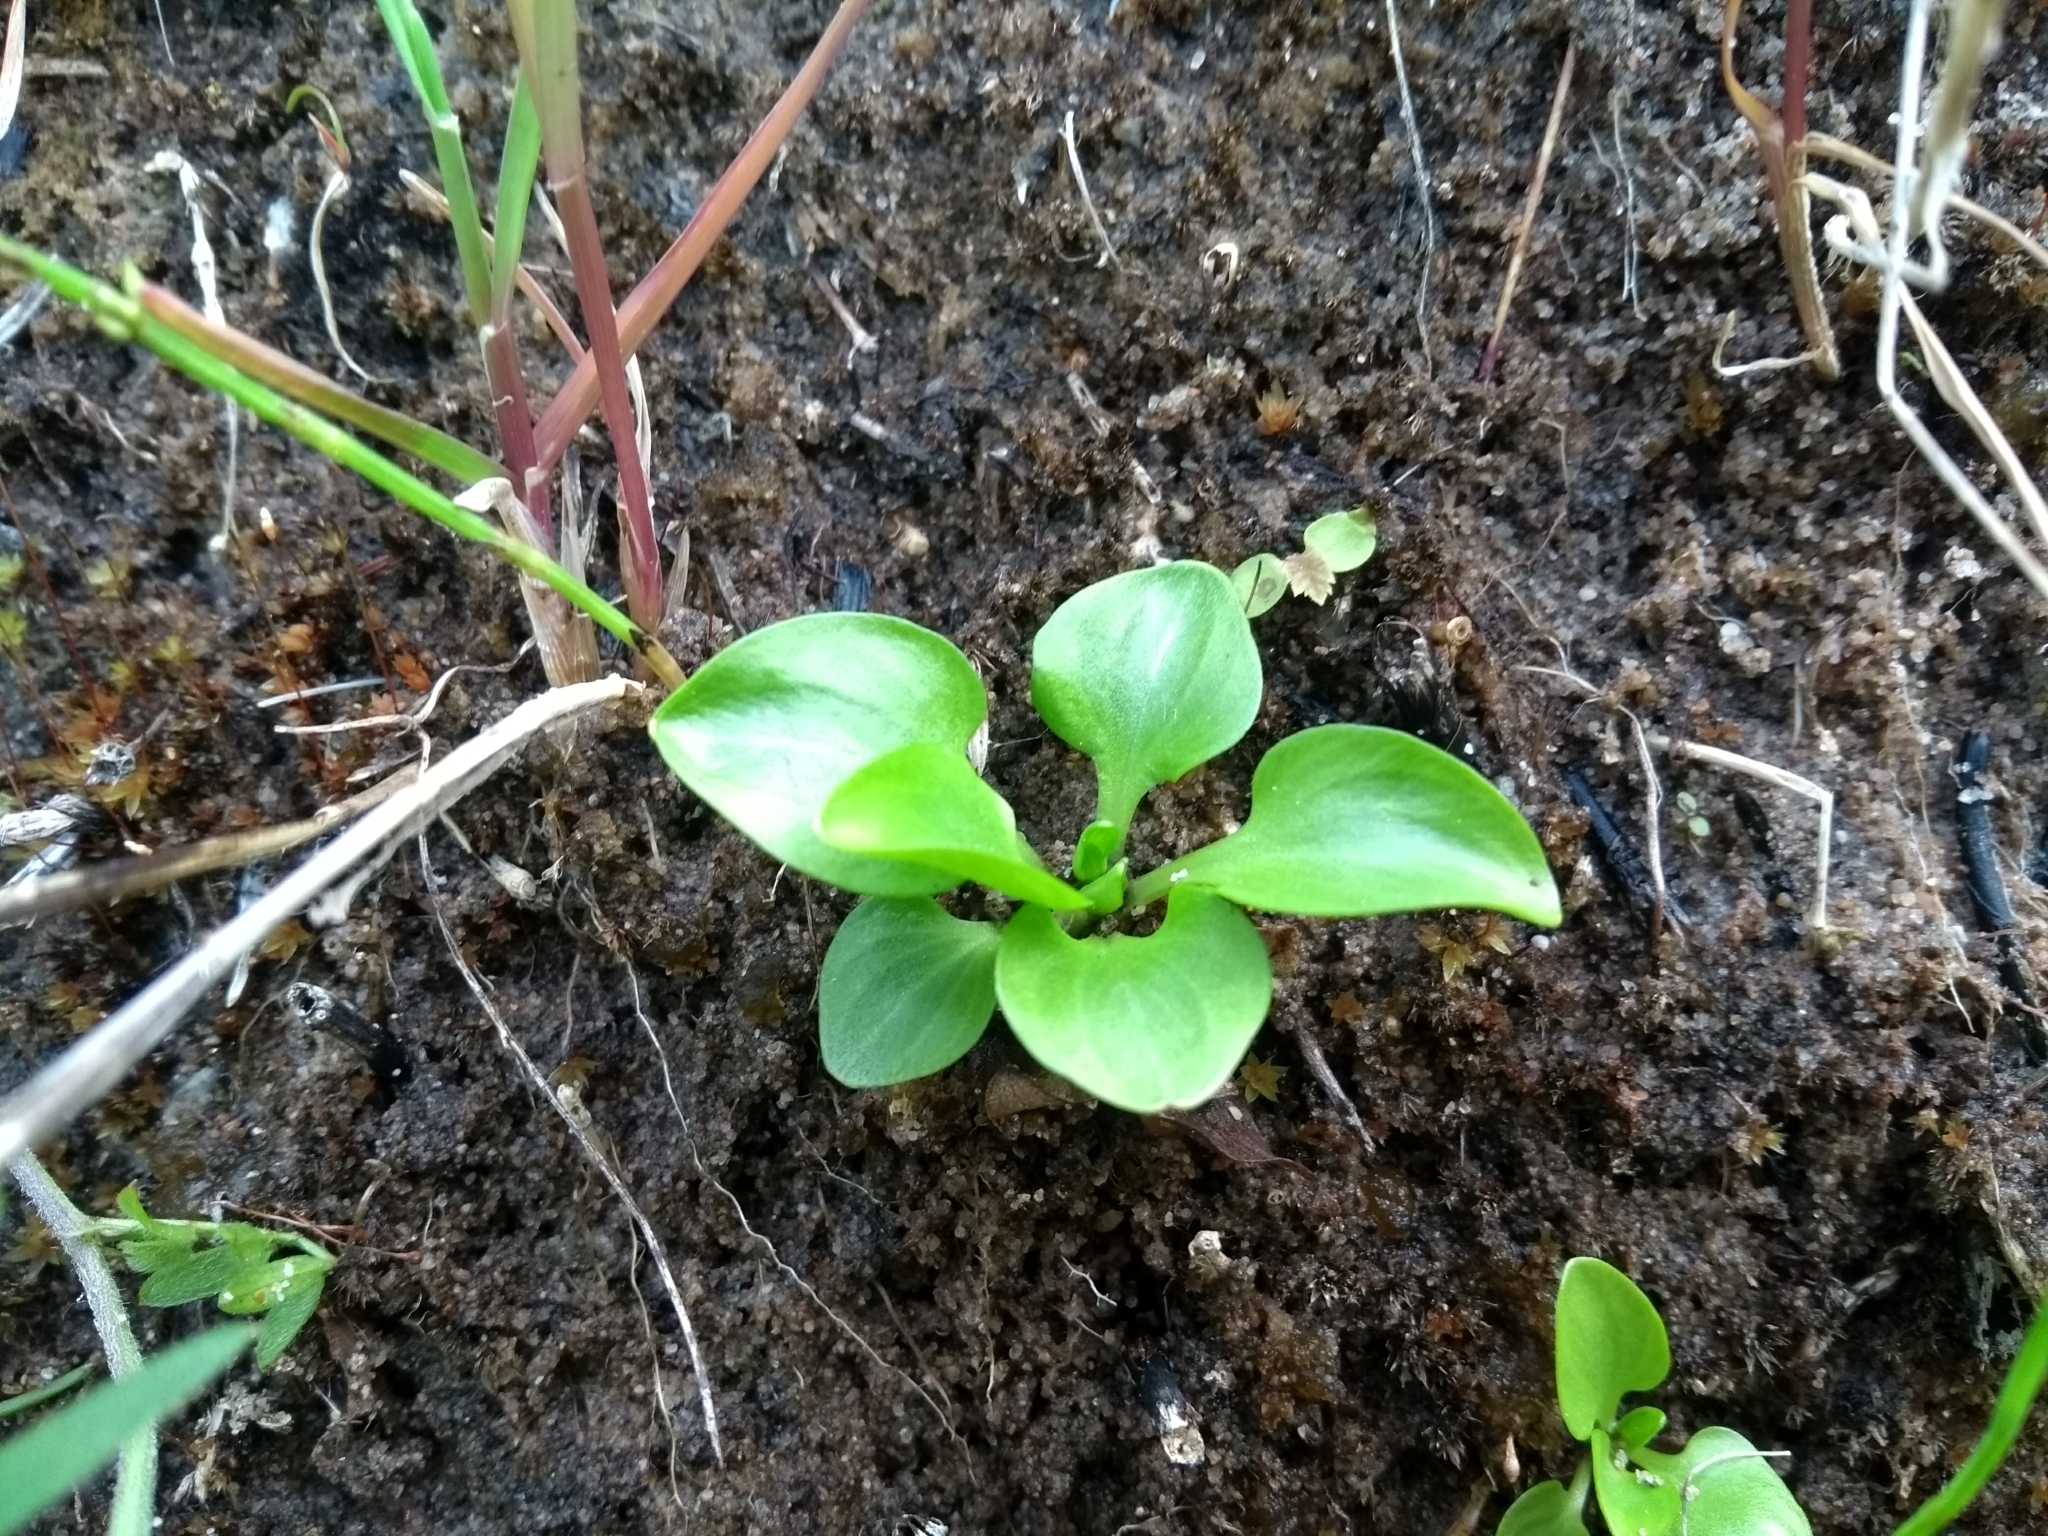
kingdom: Plantae
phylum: Tracheophyta
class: Magnoliopsida
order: Celastrales
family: Parnassiaceae
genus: Parnassia
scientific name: Parnassia parviflora
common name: Small-flowered grass-of-parnassus
